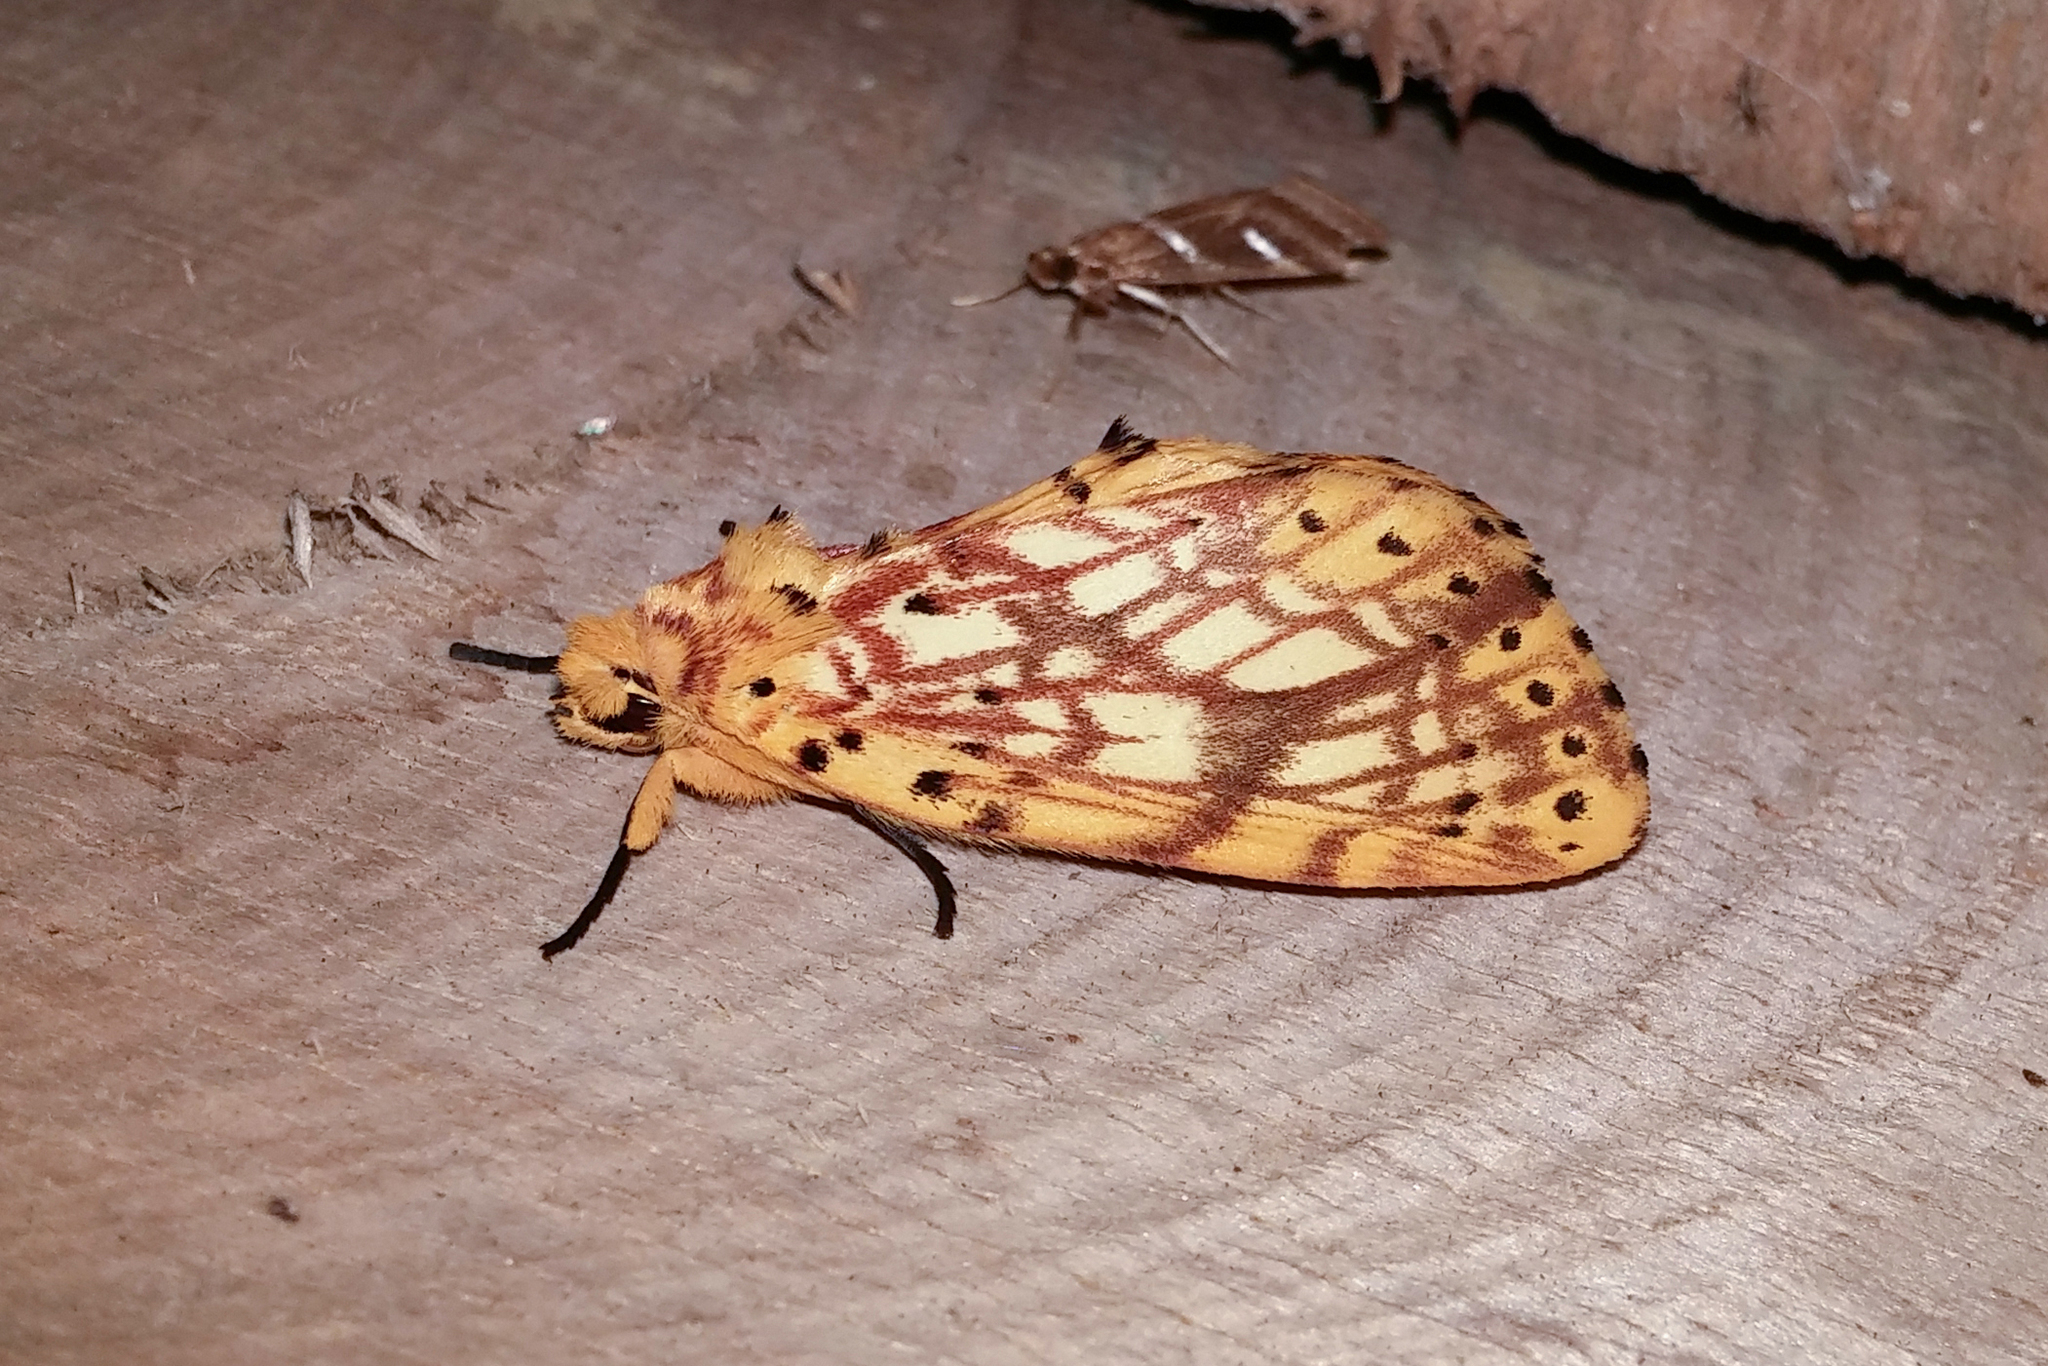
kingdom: Animalia
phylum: Arthropoda
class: Insecta
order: Lepidoptera
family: Notodontidae
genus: Parabasis
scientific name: Parabasis felixi
